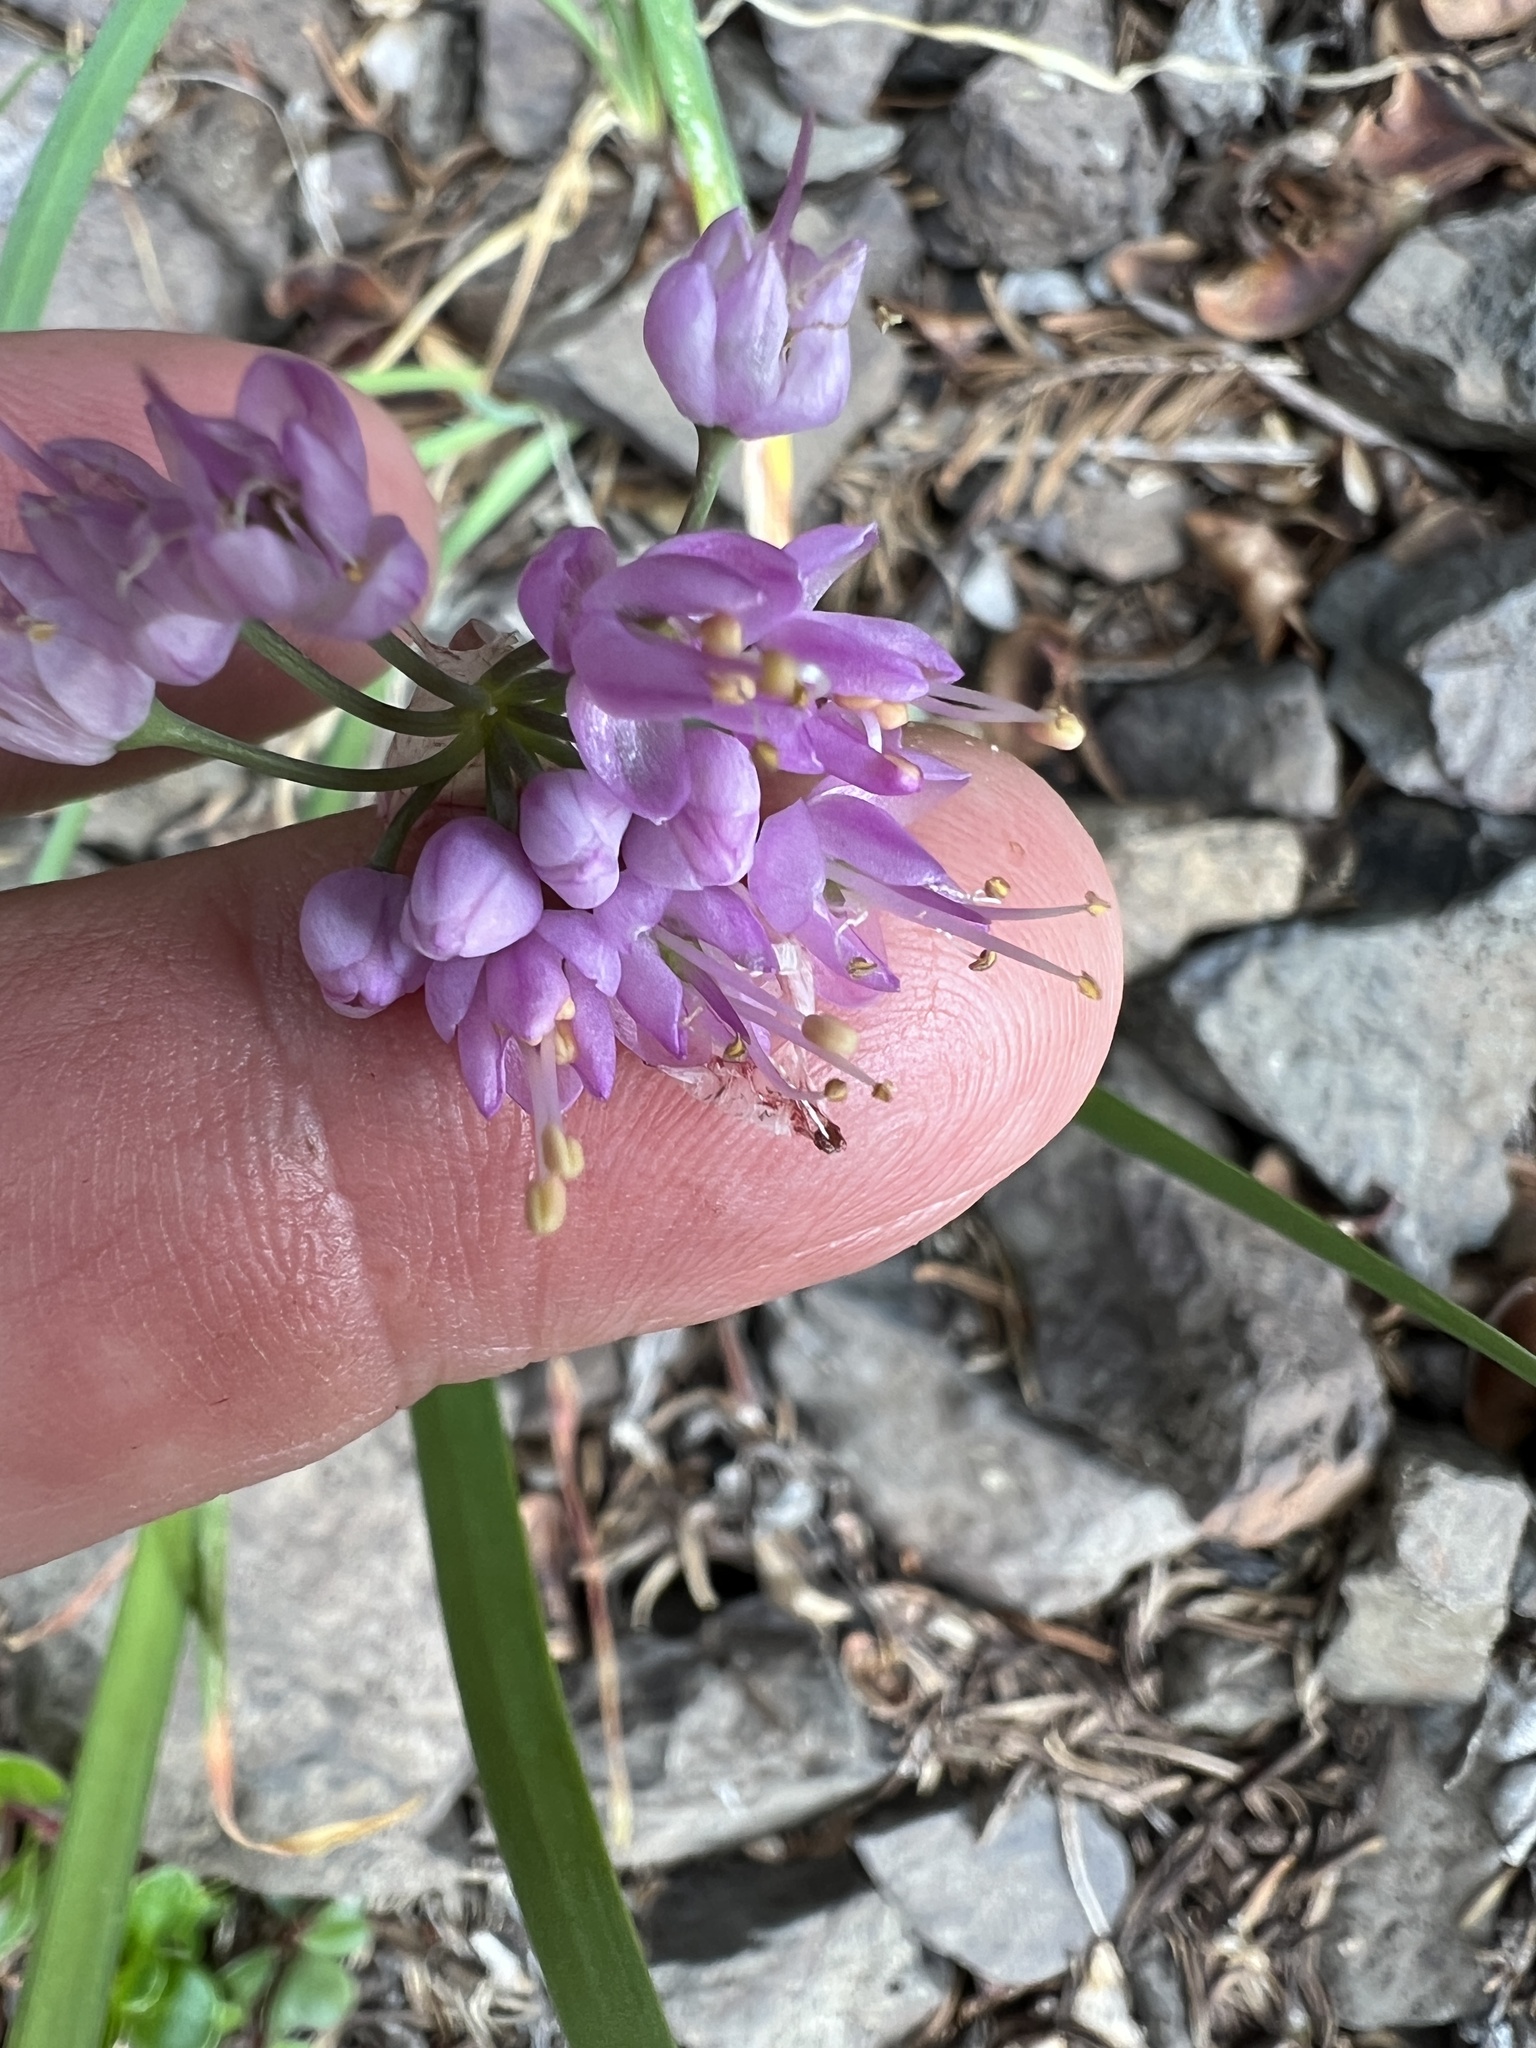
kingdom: Plantae
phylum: Tracheophyta
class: Liliopsida
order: Asparagales
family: Amaryllidaceae
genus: Allium
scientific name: Allium cernuum
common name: Nodding onion
